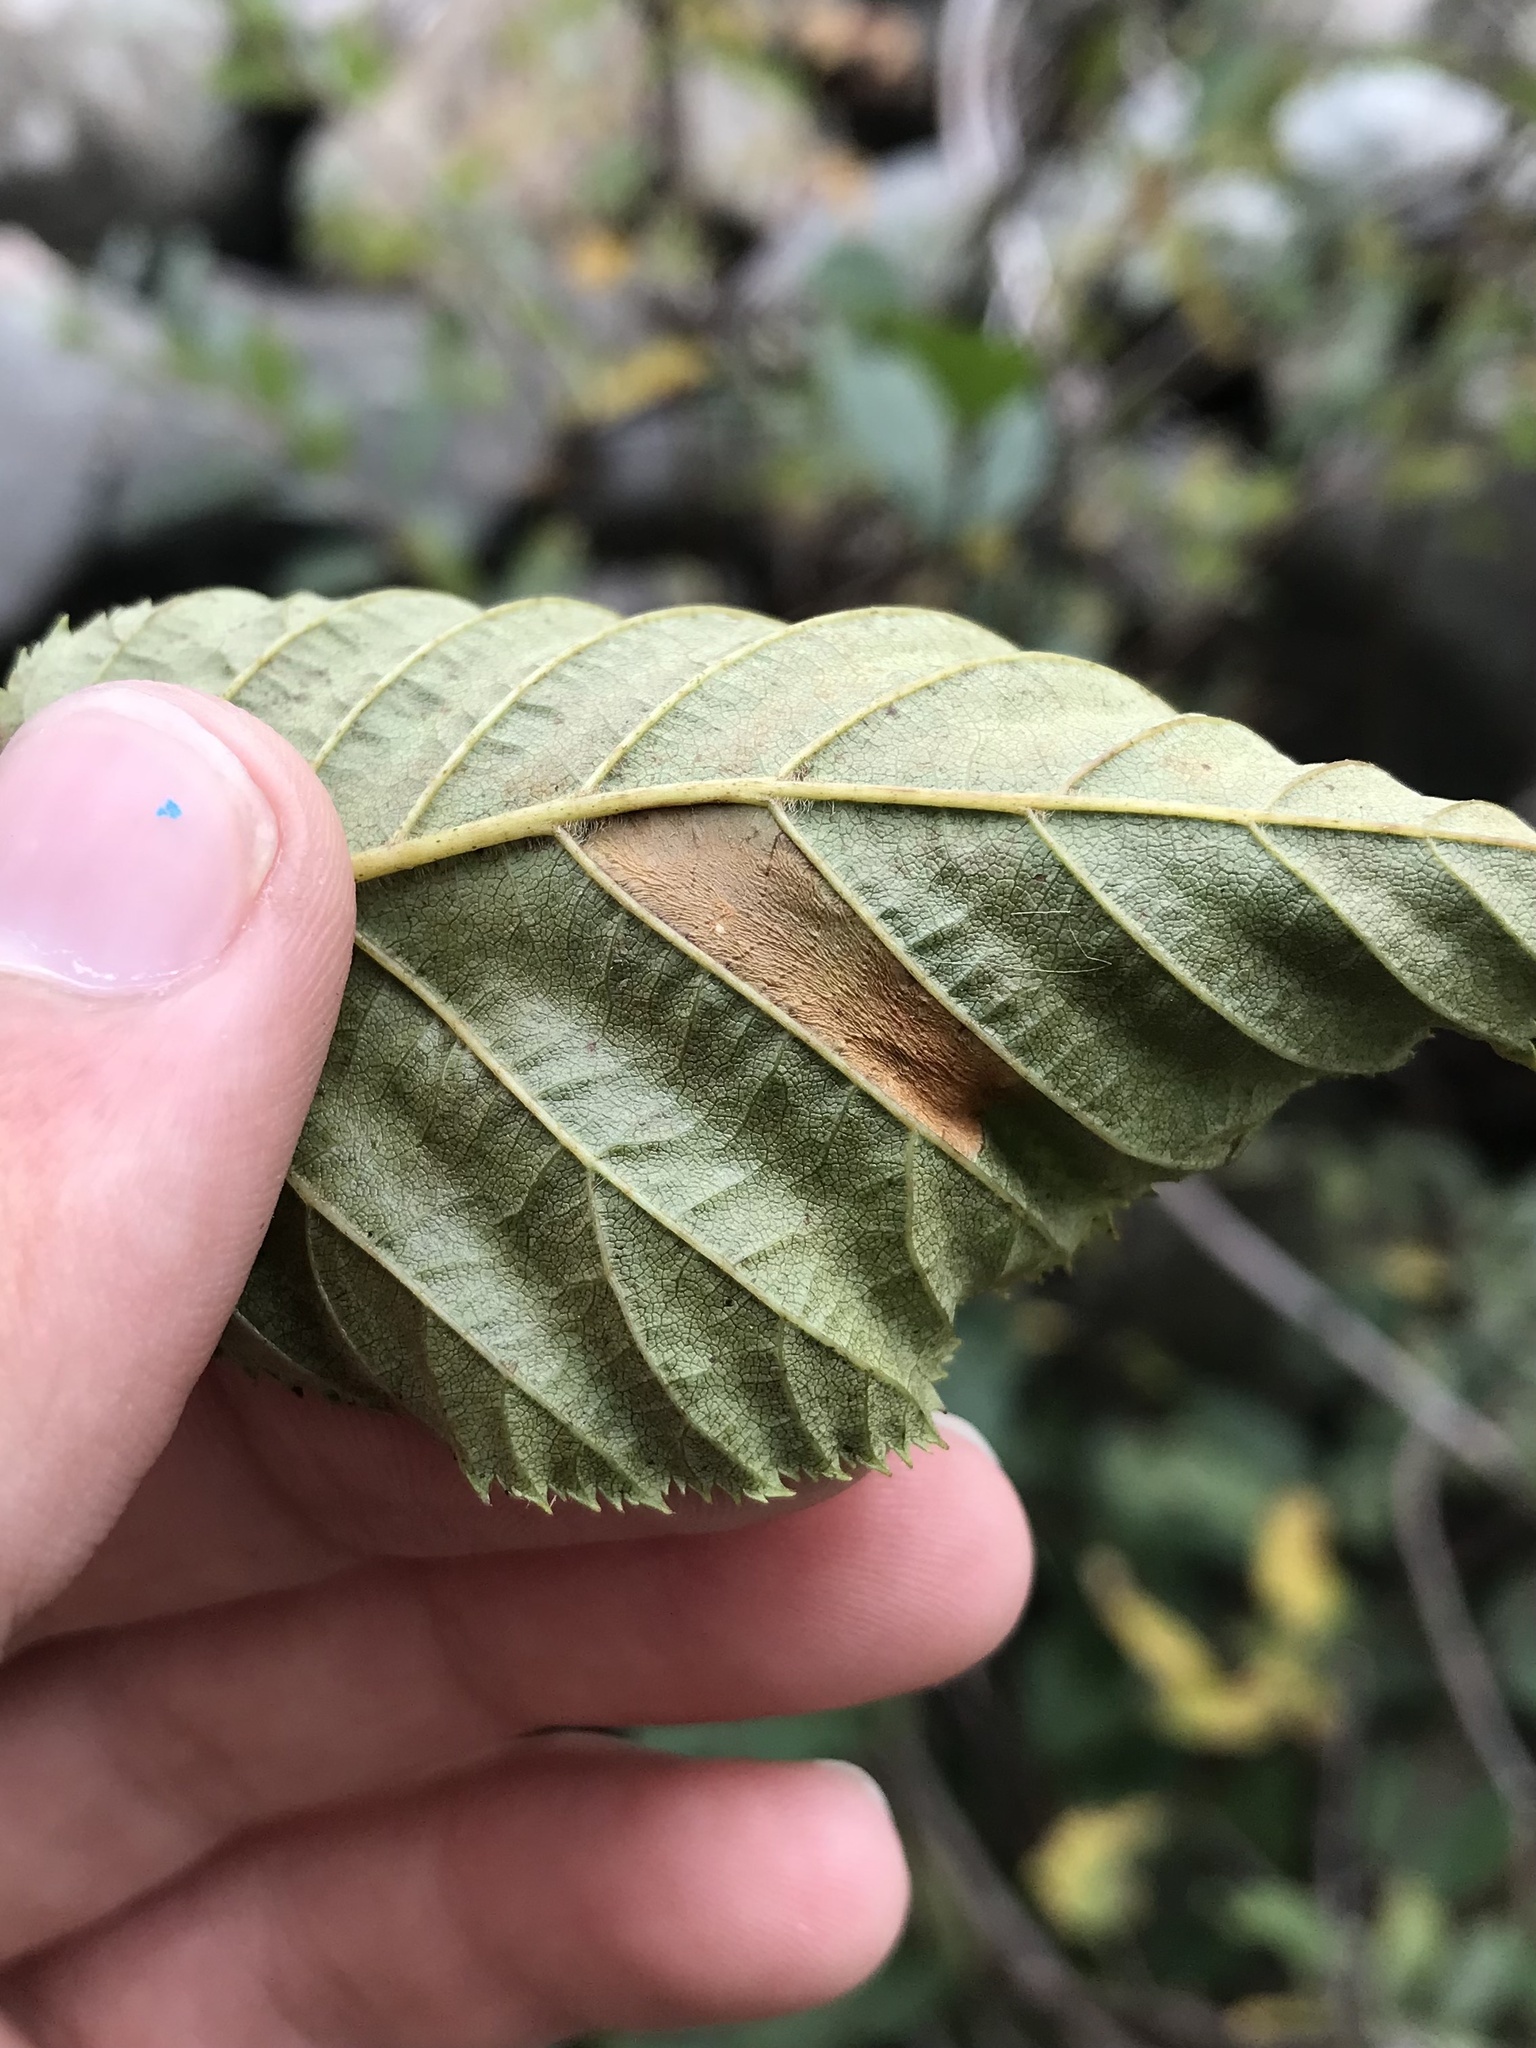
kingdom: Animalia
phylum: Arthropoda
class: Insecta
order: Lepidoptera
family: Gracillariidae
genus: Phyllonorycter
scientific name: Phyllonorycter alaskana
